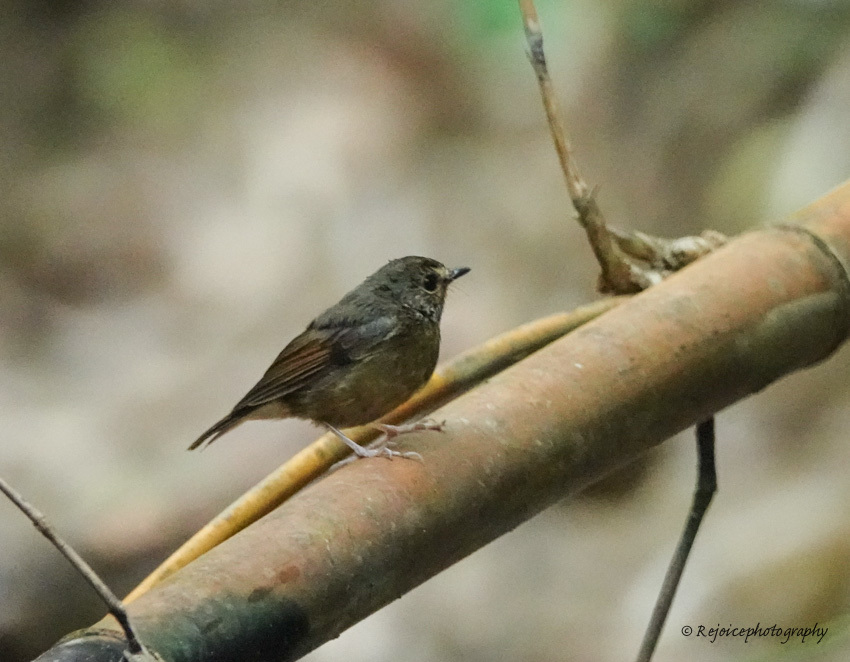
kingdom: Animalia
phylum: Chordata
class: Aves
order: Passeriformes
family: Muscicapidae
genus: Ficedula
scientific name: Ficedula hyperythra
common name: Snowy-browed flycatcher
